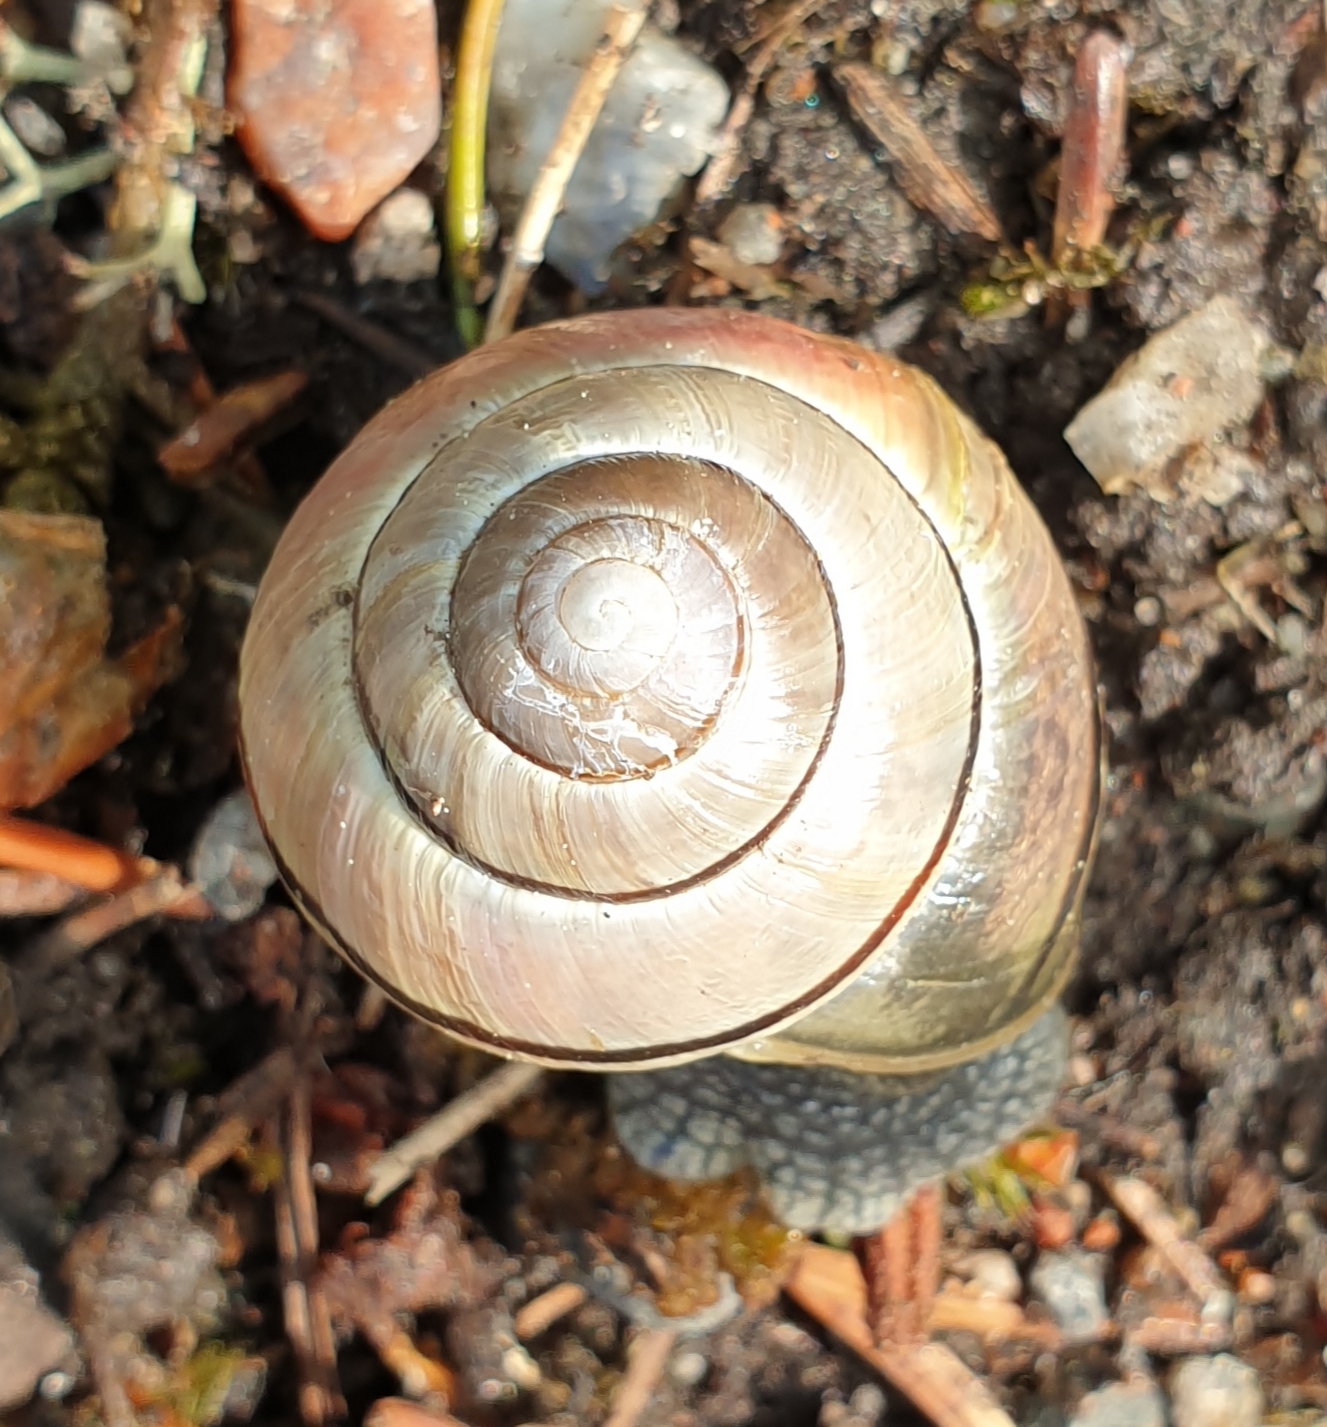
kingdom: Animalia
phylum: Mollusca
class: Gastropoda
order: Stylommatophora
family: Helicidae
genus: Cepaea
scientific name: Cepaea nemoralis
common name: Grovesnail
